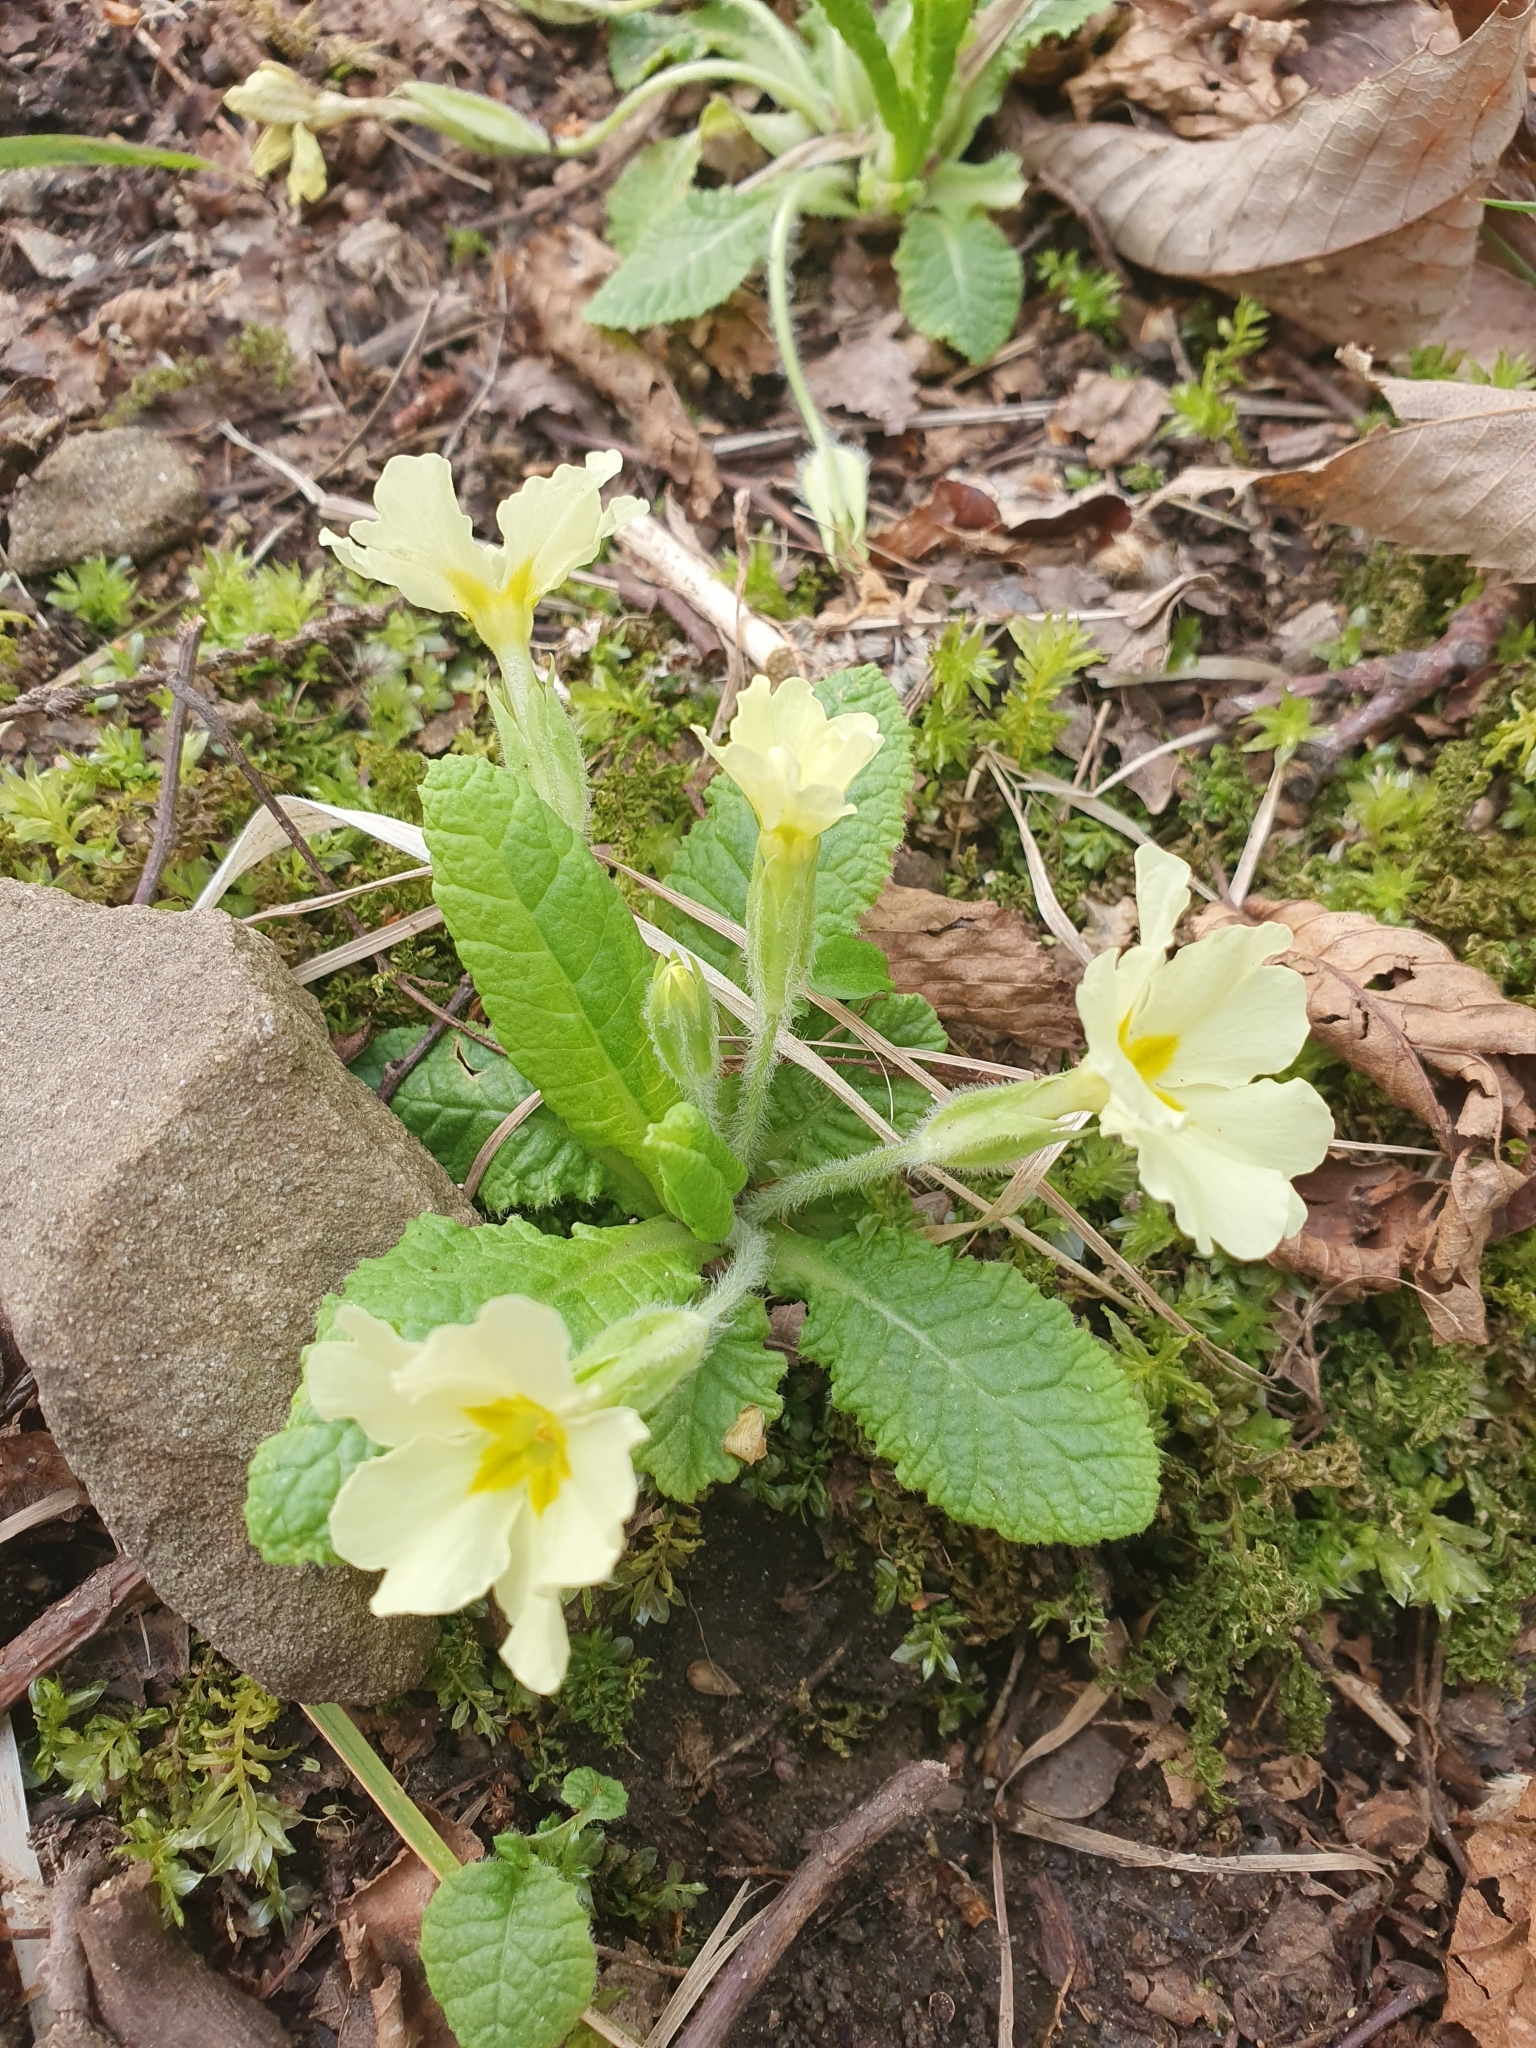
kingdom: Plantae
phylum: Tracheophyta
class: Magnoliopsida
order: Ericales
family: Primulaceae
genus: Primula
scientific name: Primula vulgaris
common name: Primrose
